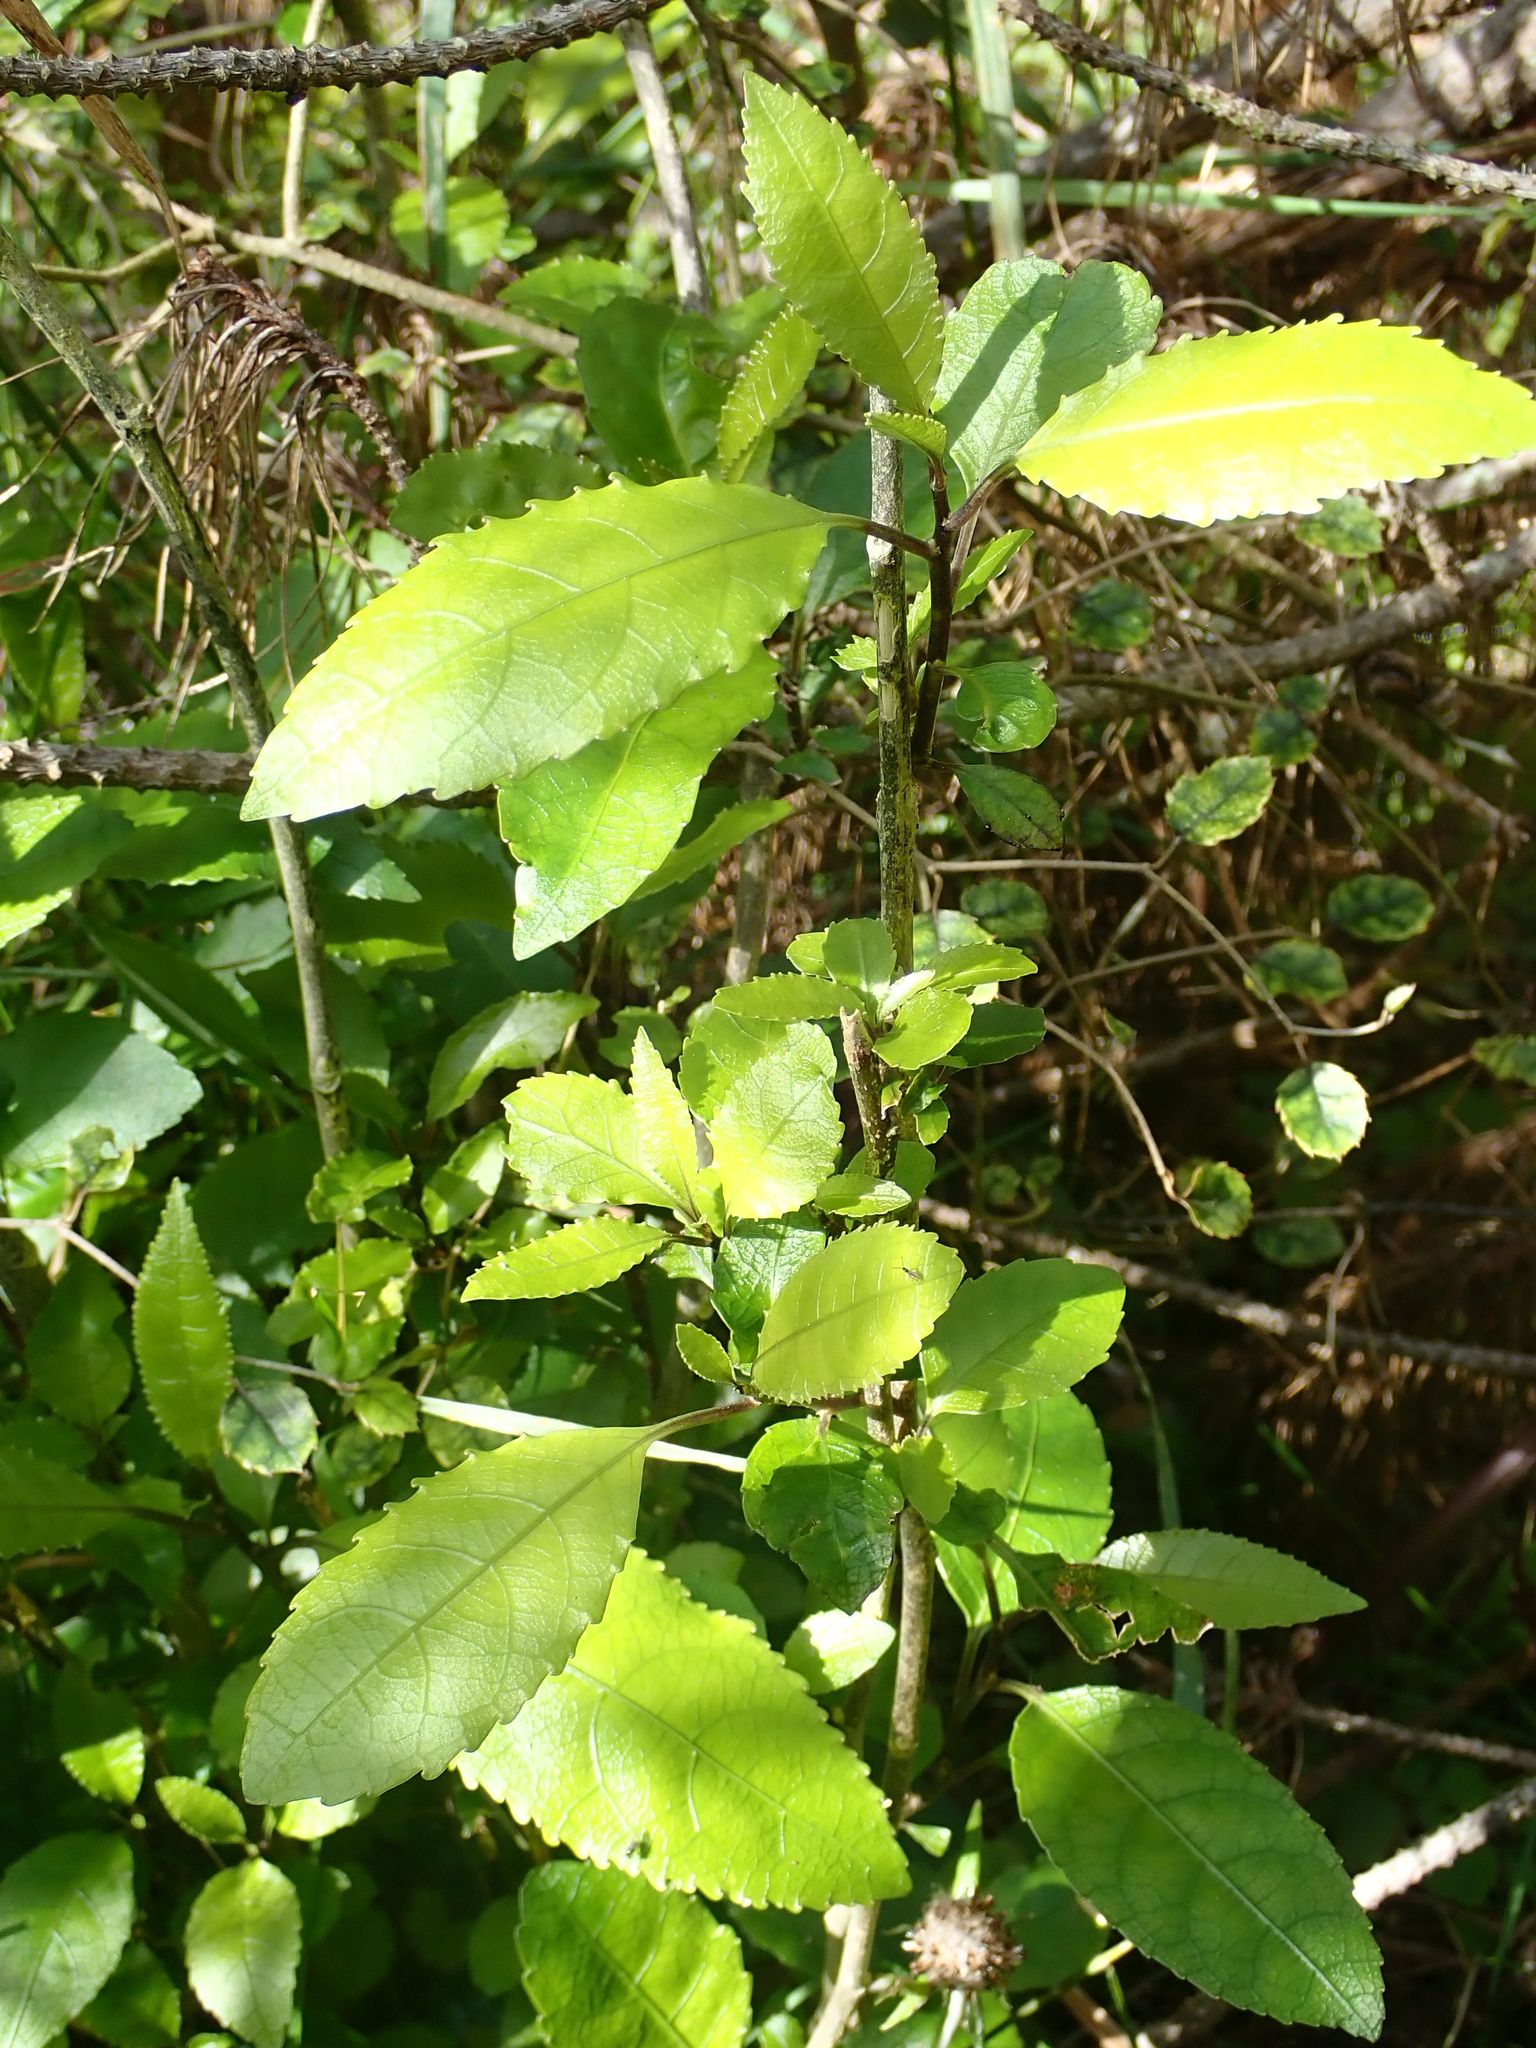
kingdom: Plantae
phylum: Tracheophyta
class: Magnoliopsida
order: Malpighiales
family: Violaceae
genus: Melicytus
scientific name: Melicytus ramiflorus
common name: Mahoe
